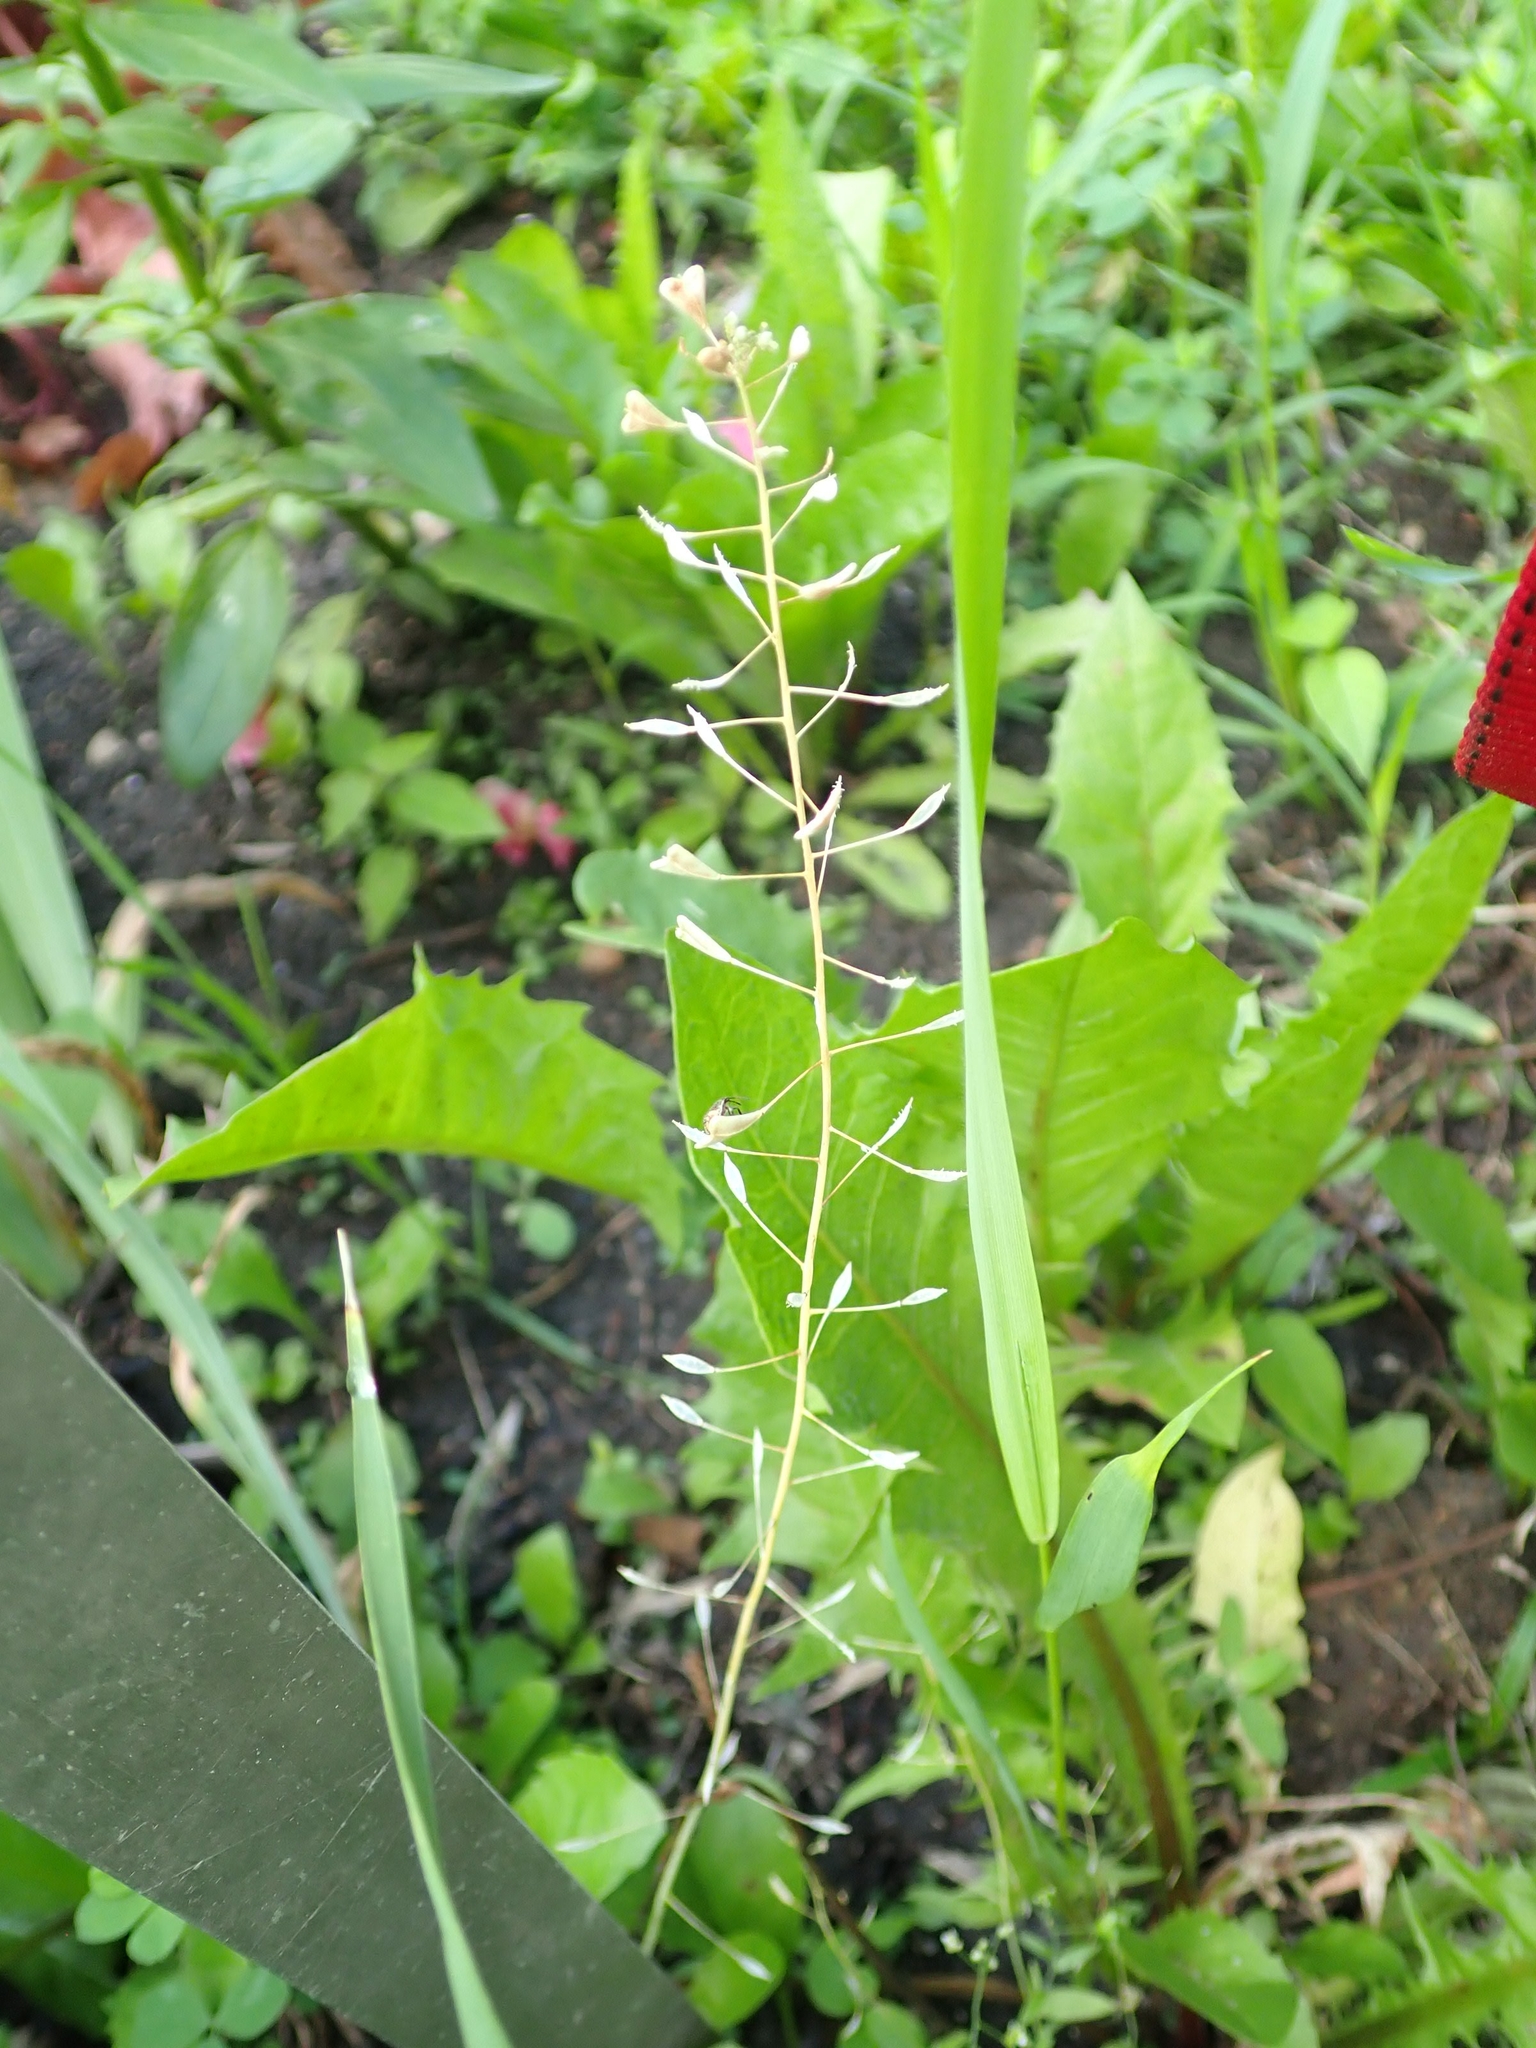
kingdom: Plantae
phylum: Tracheophyta
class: Magnoliopsida
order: Brassicales
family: Brassicaceae
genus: Capsella
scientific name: Capsella bursa-pastoris
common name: Shepherd's purse
